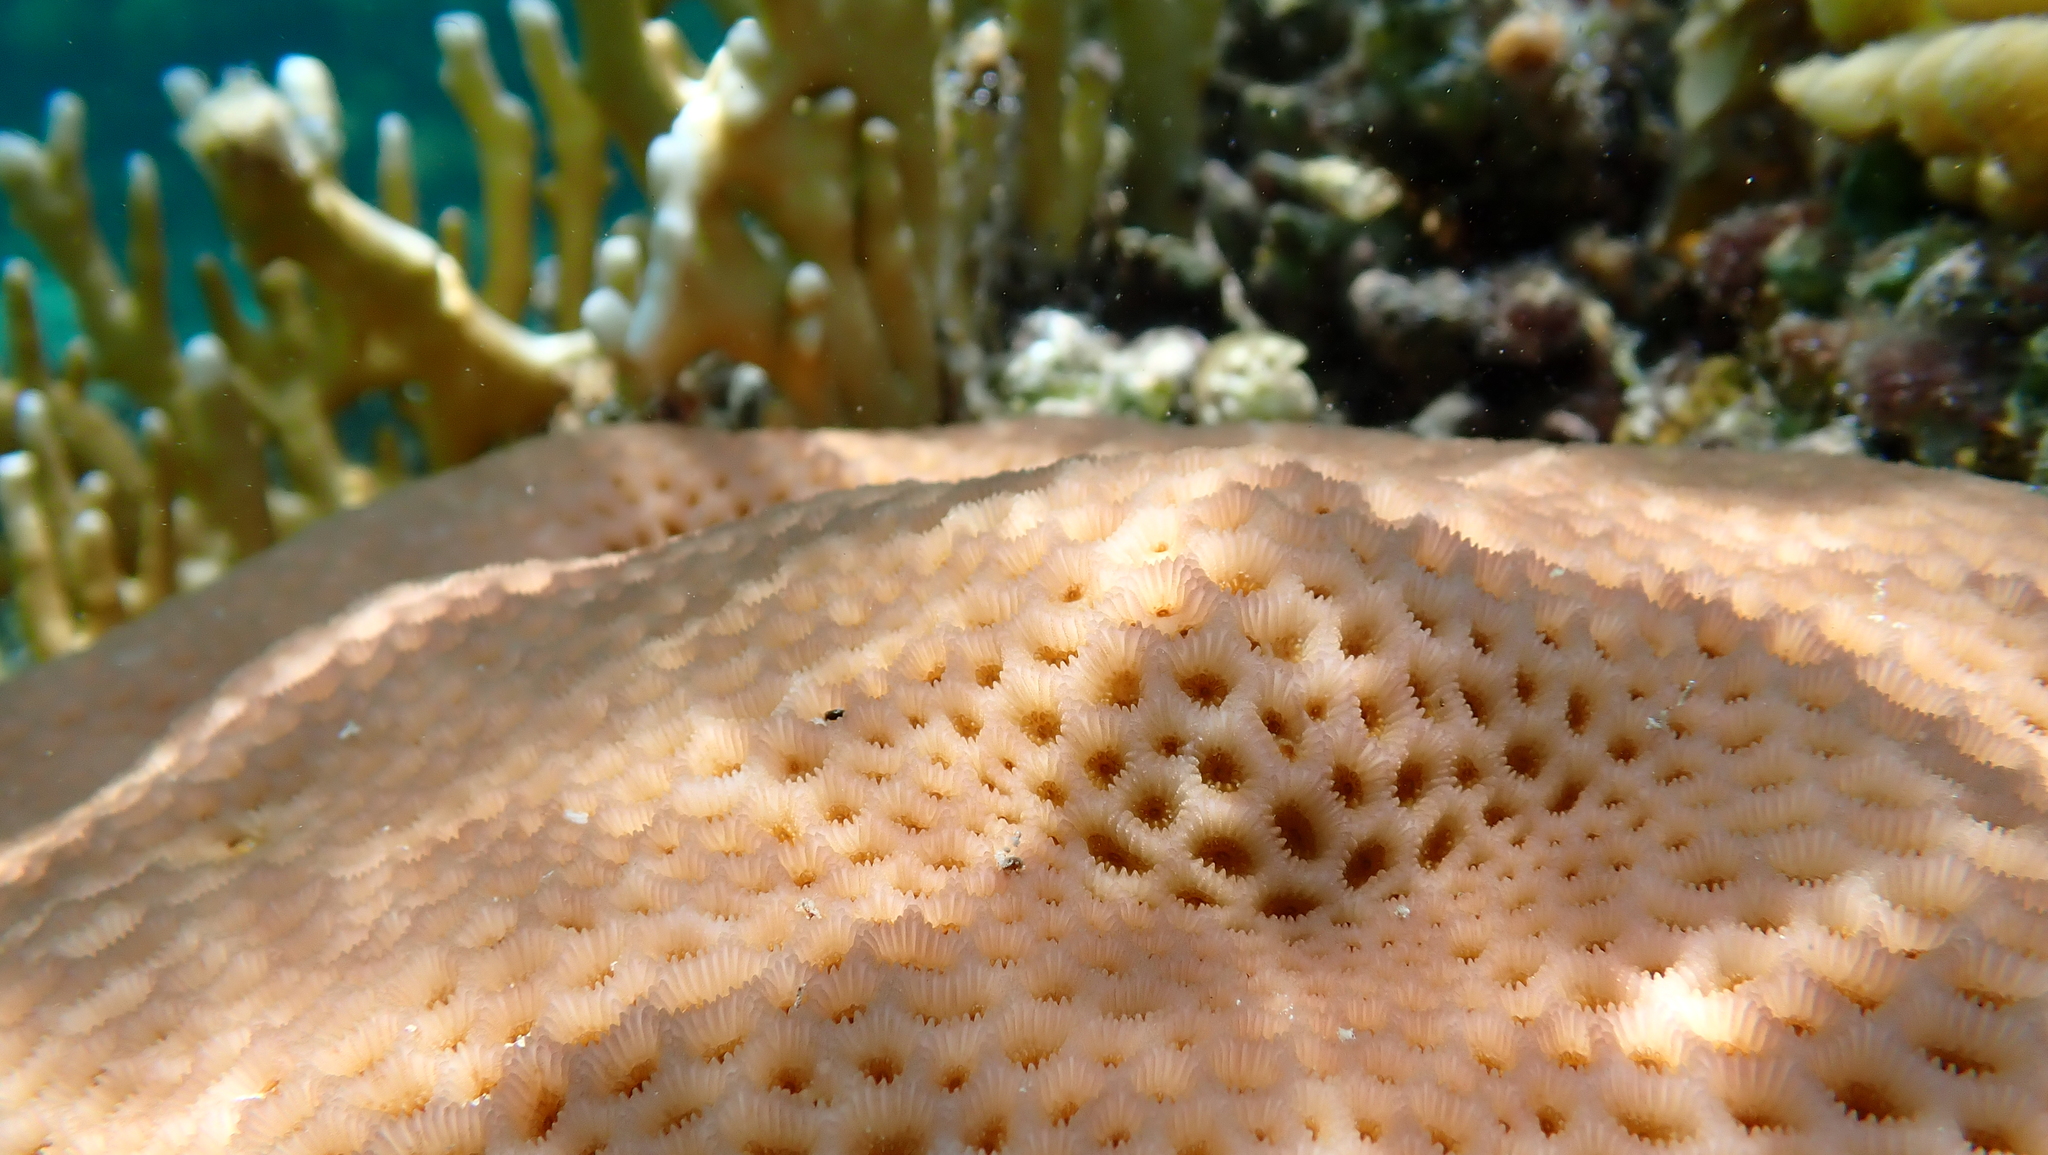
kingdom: Animalia
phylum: Cnidaria
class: Anthozoa
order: Scleractinia
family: Merulinidae
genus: Goniastrea
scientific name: Goniastrea pectinata
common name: Lesser star coral
